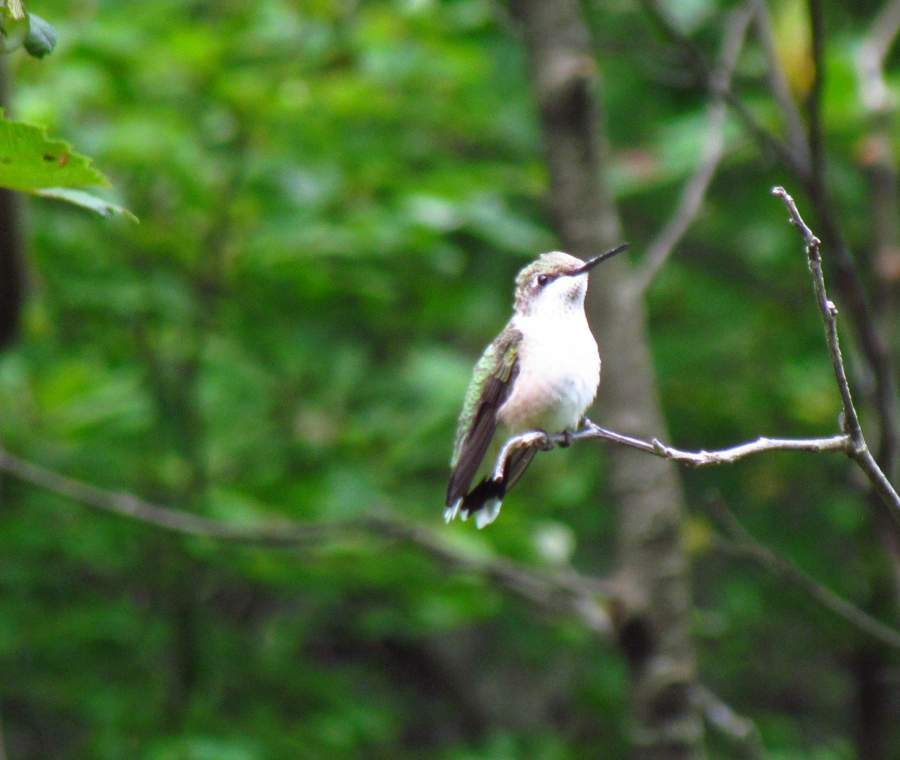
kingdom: Animalia
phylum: Chordata
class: Aves
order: Apodiformes
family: Trochilidae
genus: Archilochus
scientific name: Archilochus colubris
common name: Ruby-throated hummingbird
